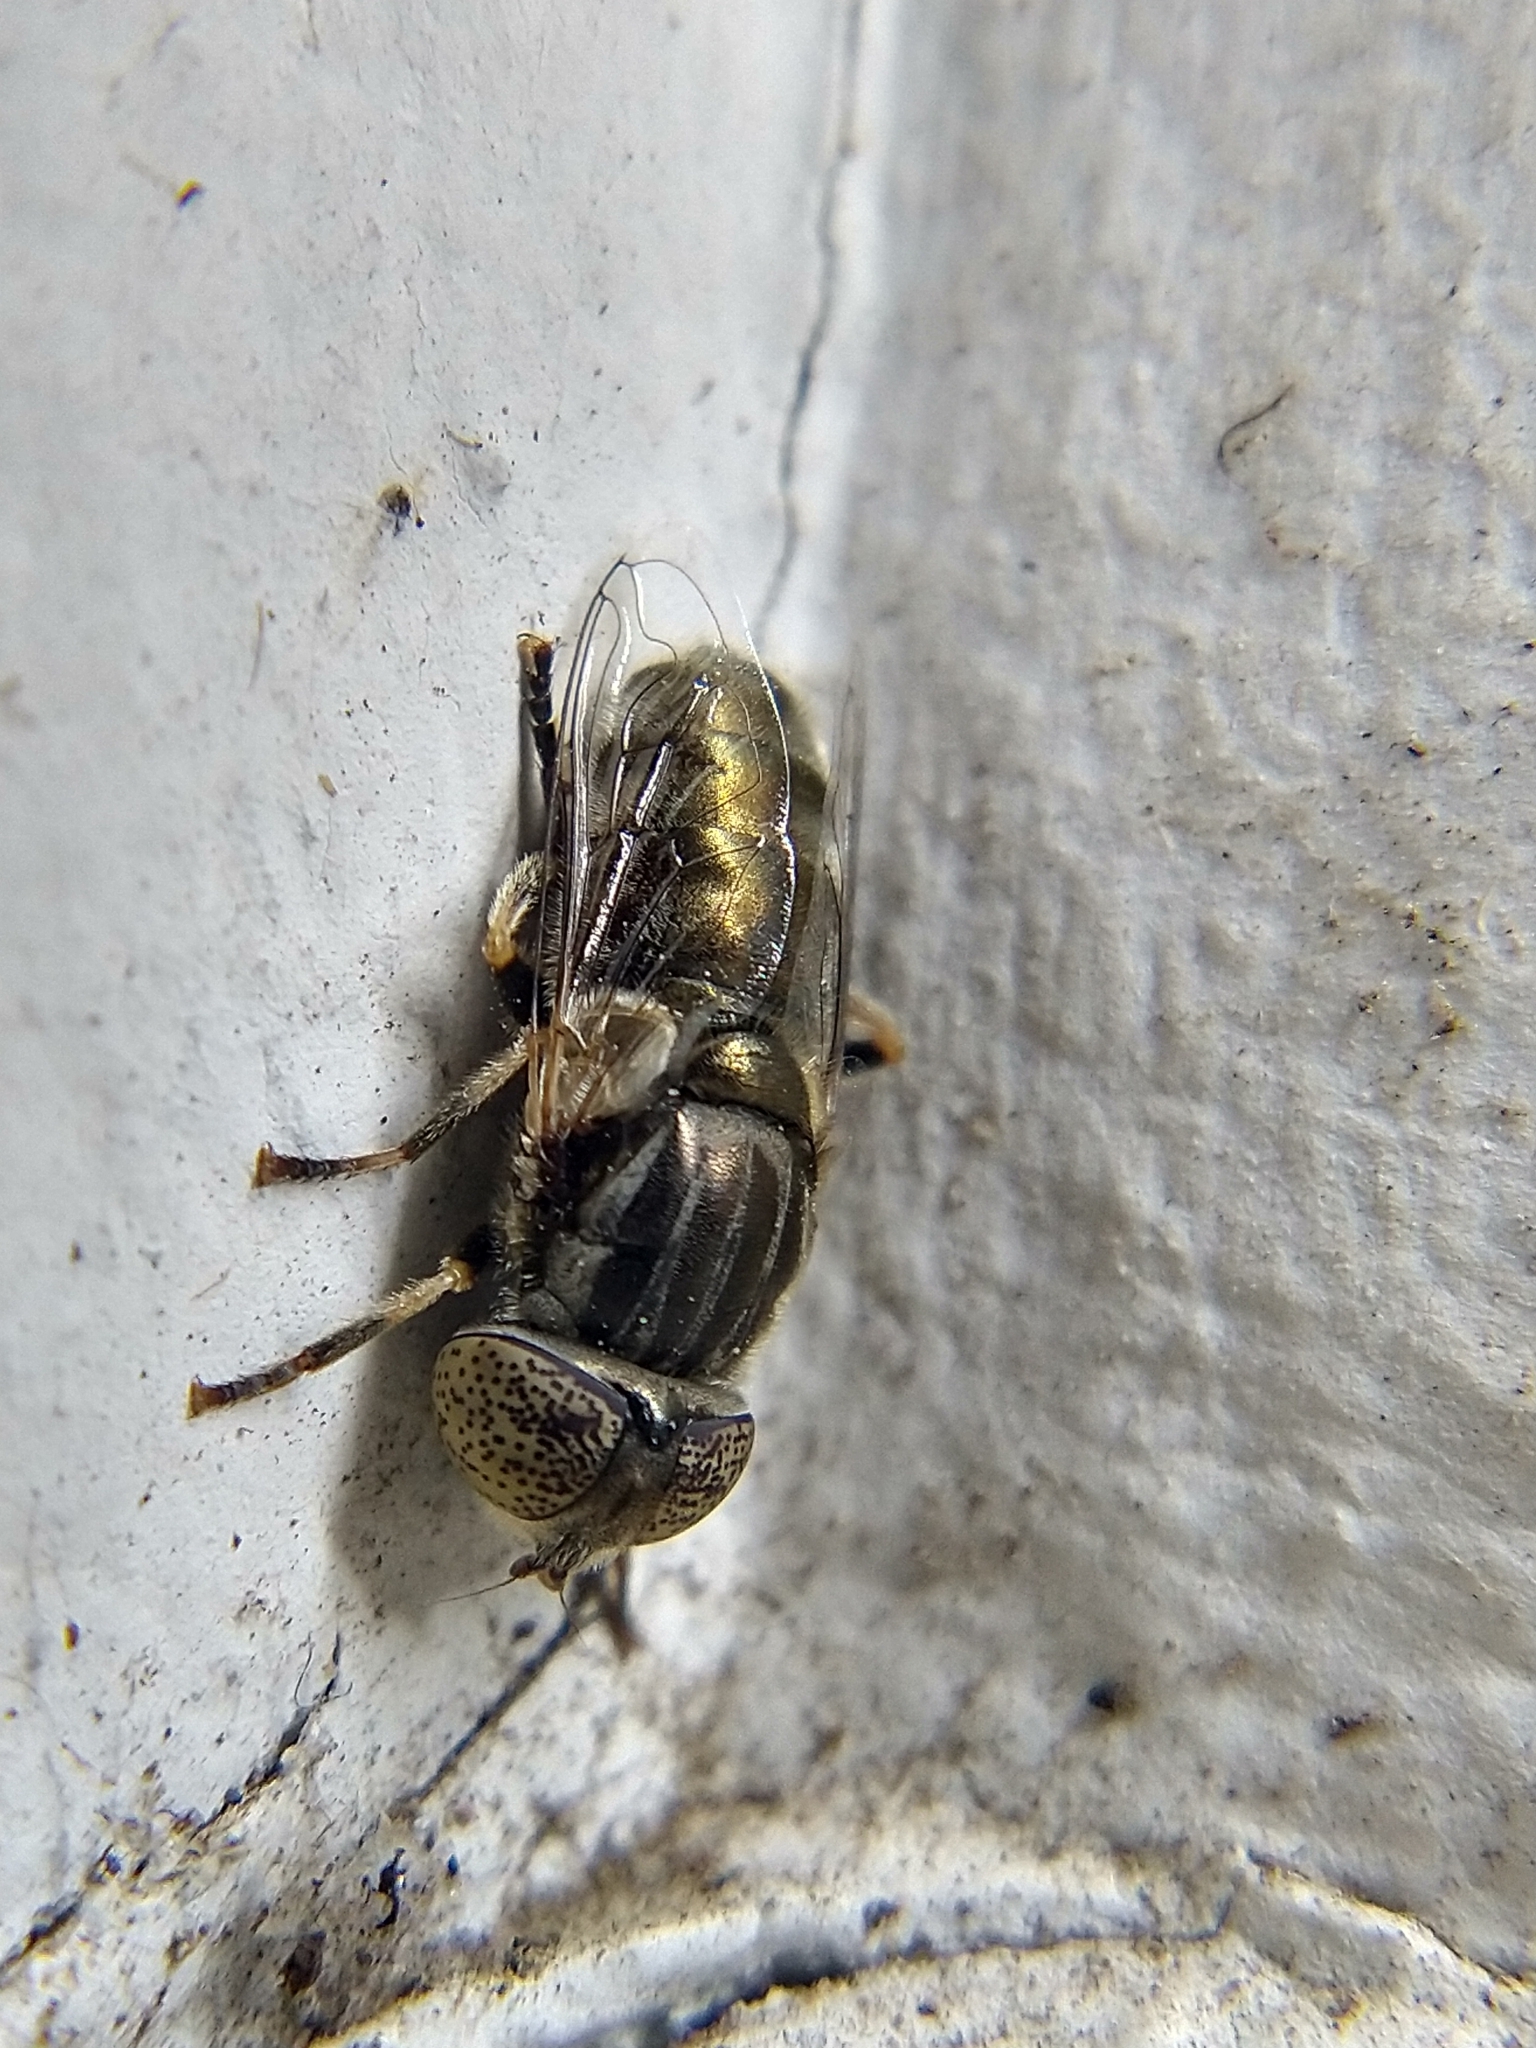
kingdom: Animalia
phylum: Arthropoda
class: Insecta
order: Diptera
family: Syrphidae
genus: Eristalinus
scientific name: Eristalinus aeneus
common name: Syrphid fly
